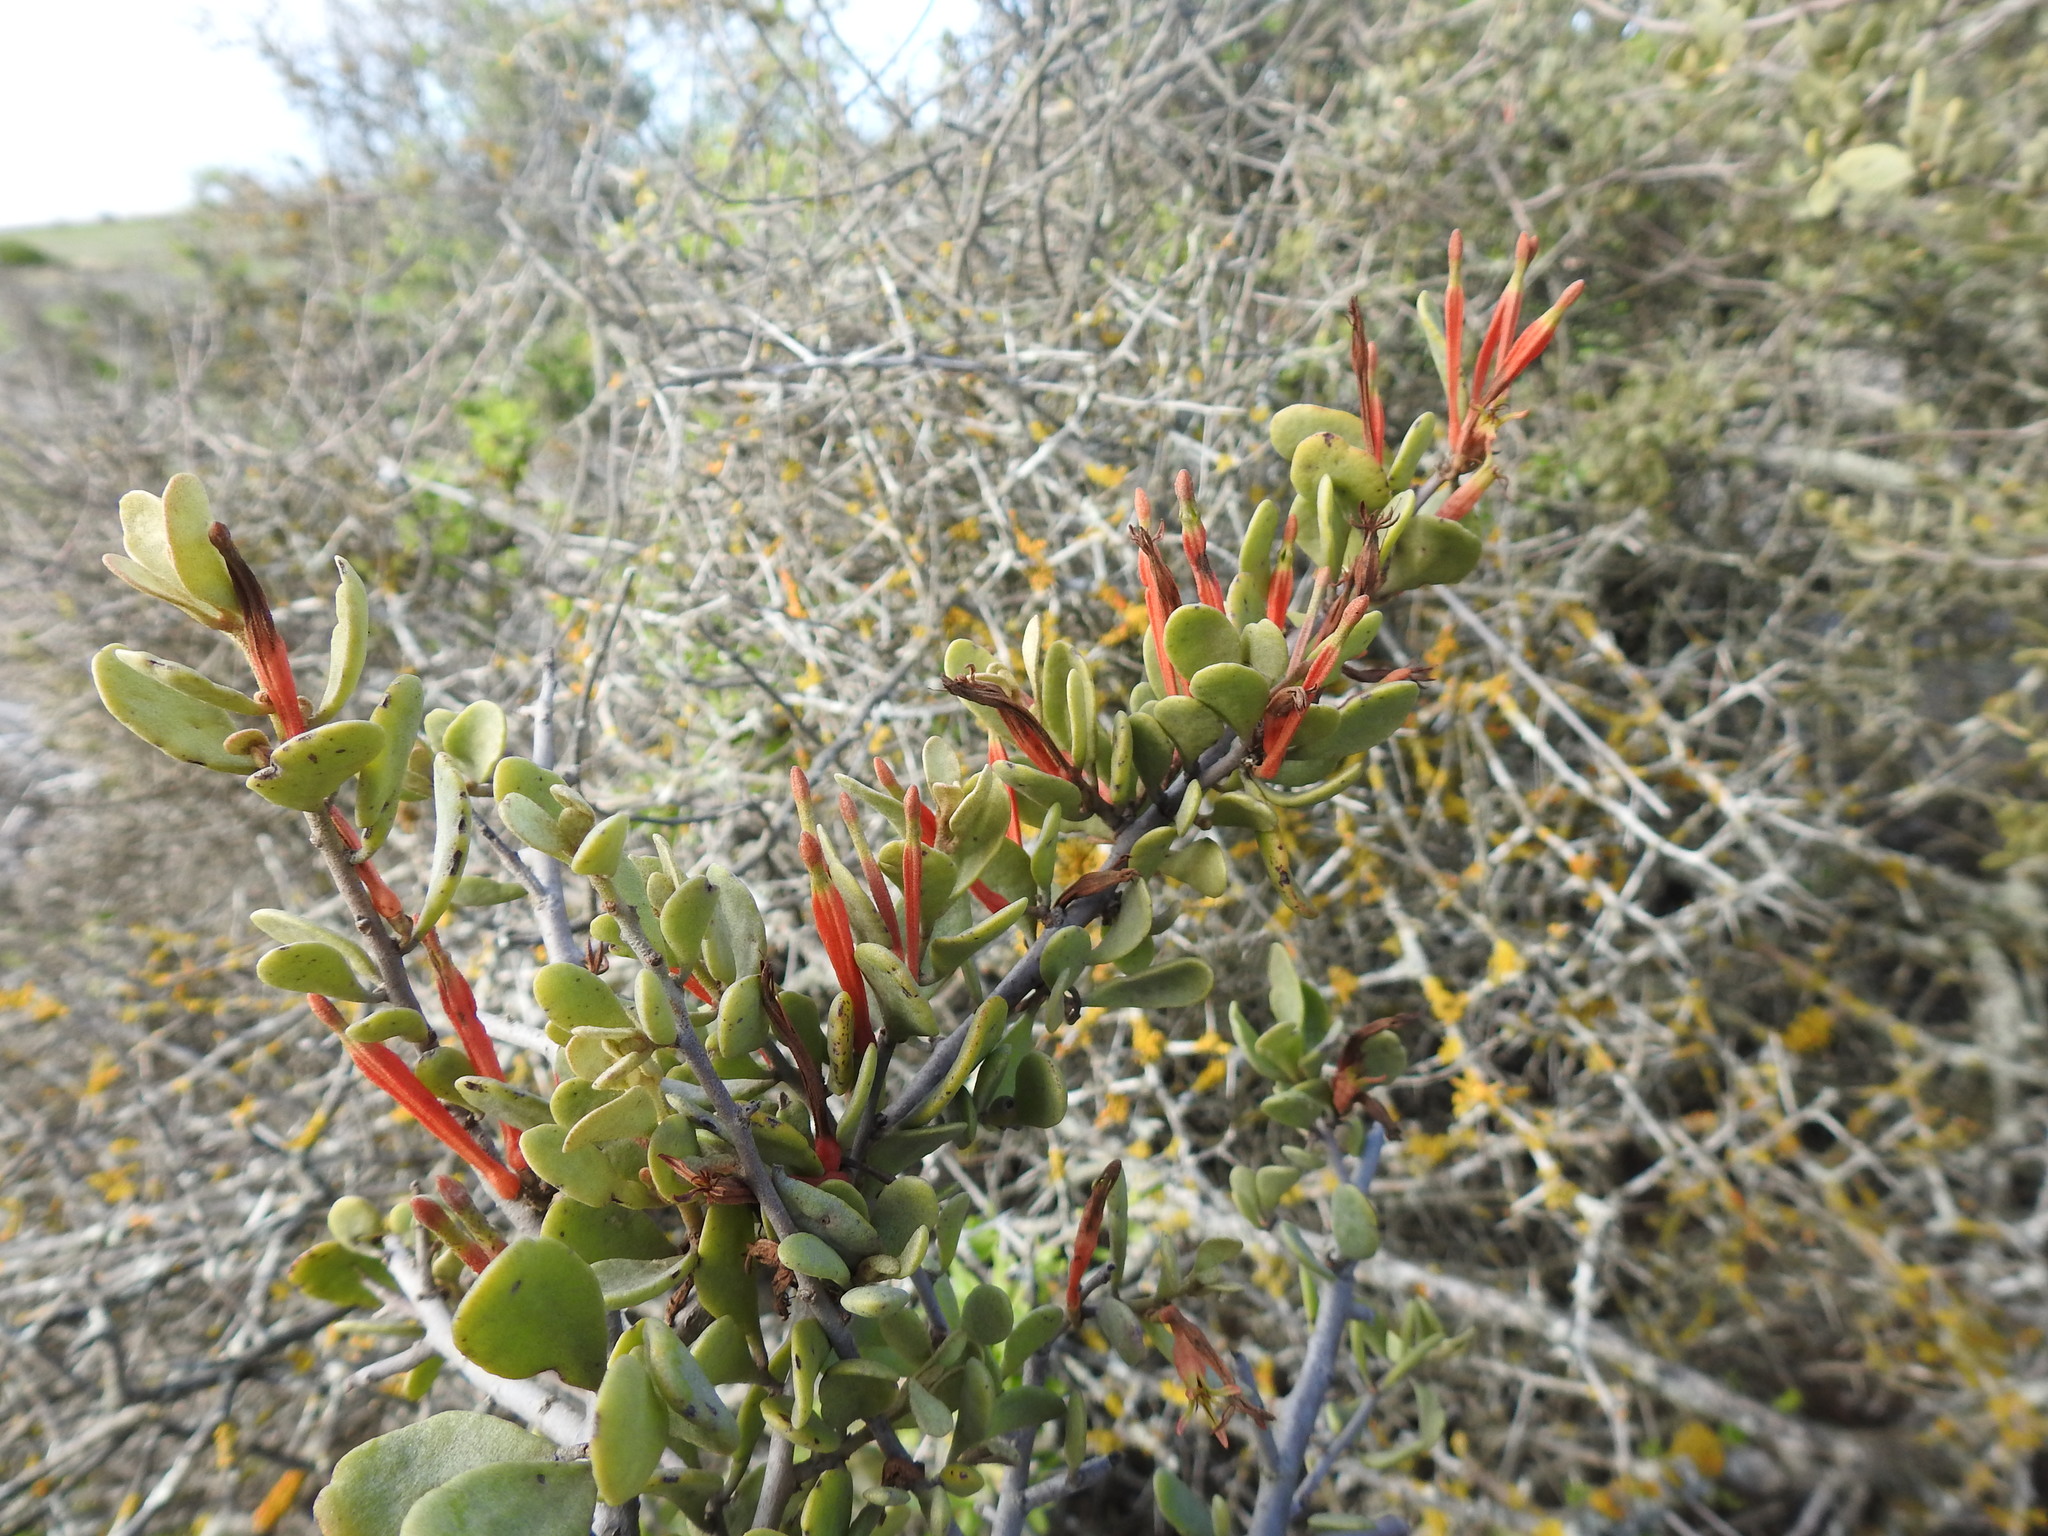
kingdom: Plantae
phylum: Tracheophyta
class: Magnoliopsida
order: Santalales
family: Loranthaceae
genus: Septulina
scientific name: Septulina glauca
